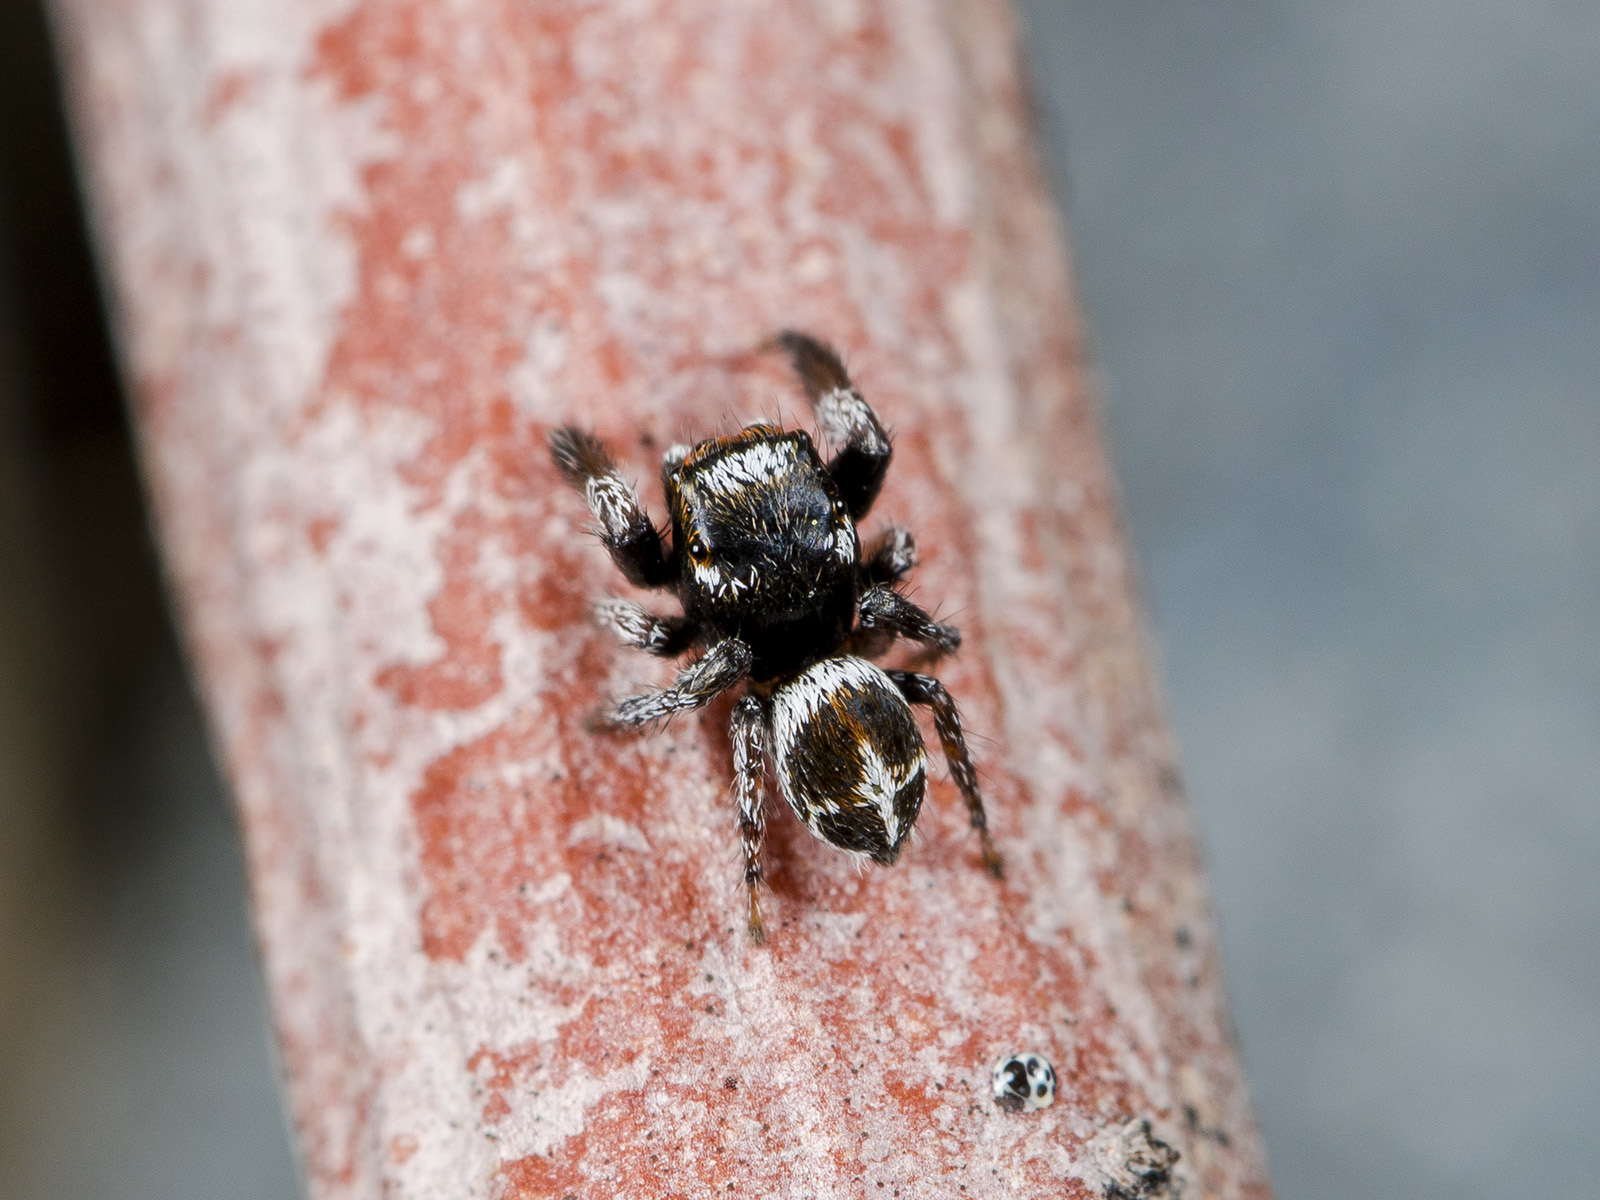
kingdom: Animalia
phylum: Arthropoda
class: Arachnida
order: Araneae
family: Salticidae
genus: Pellenes
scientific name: Pellenes geniculatus
